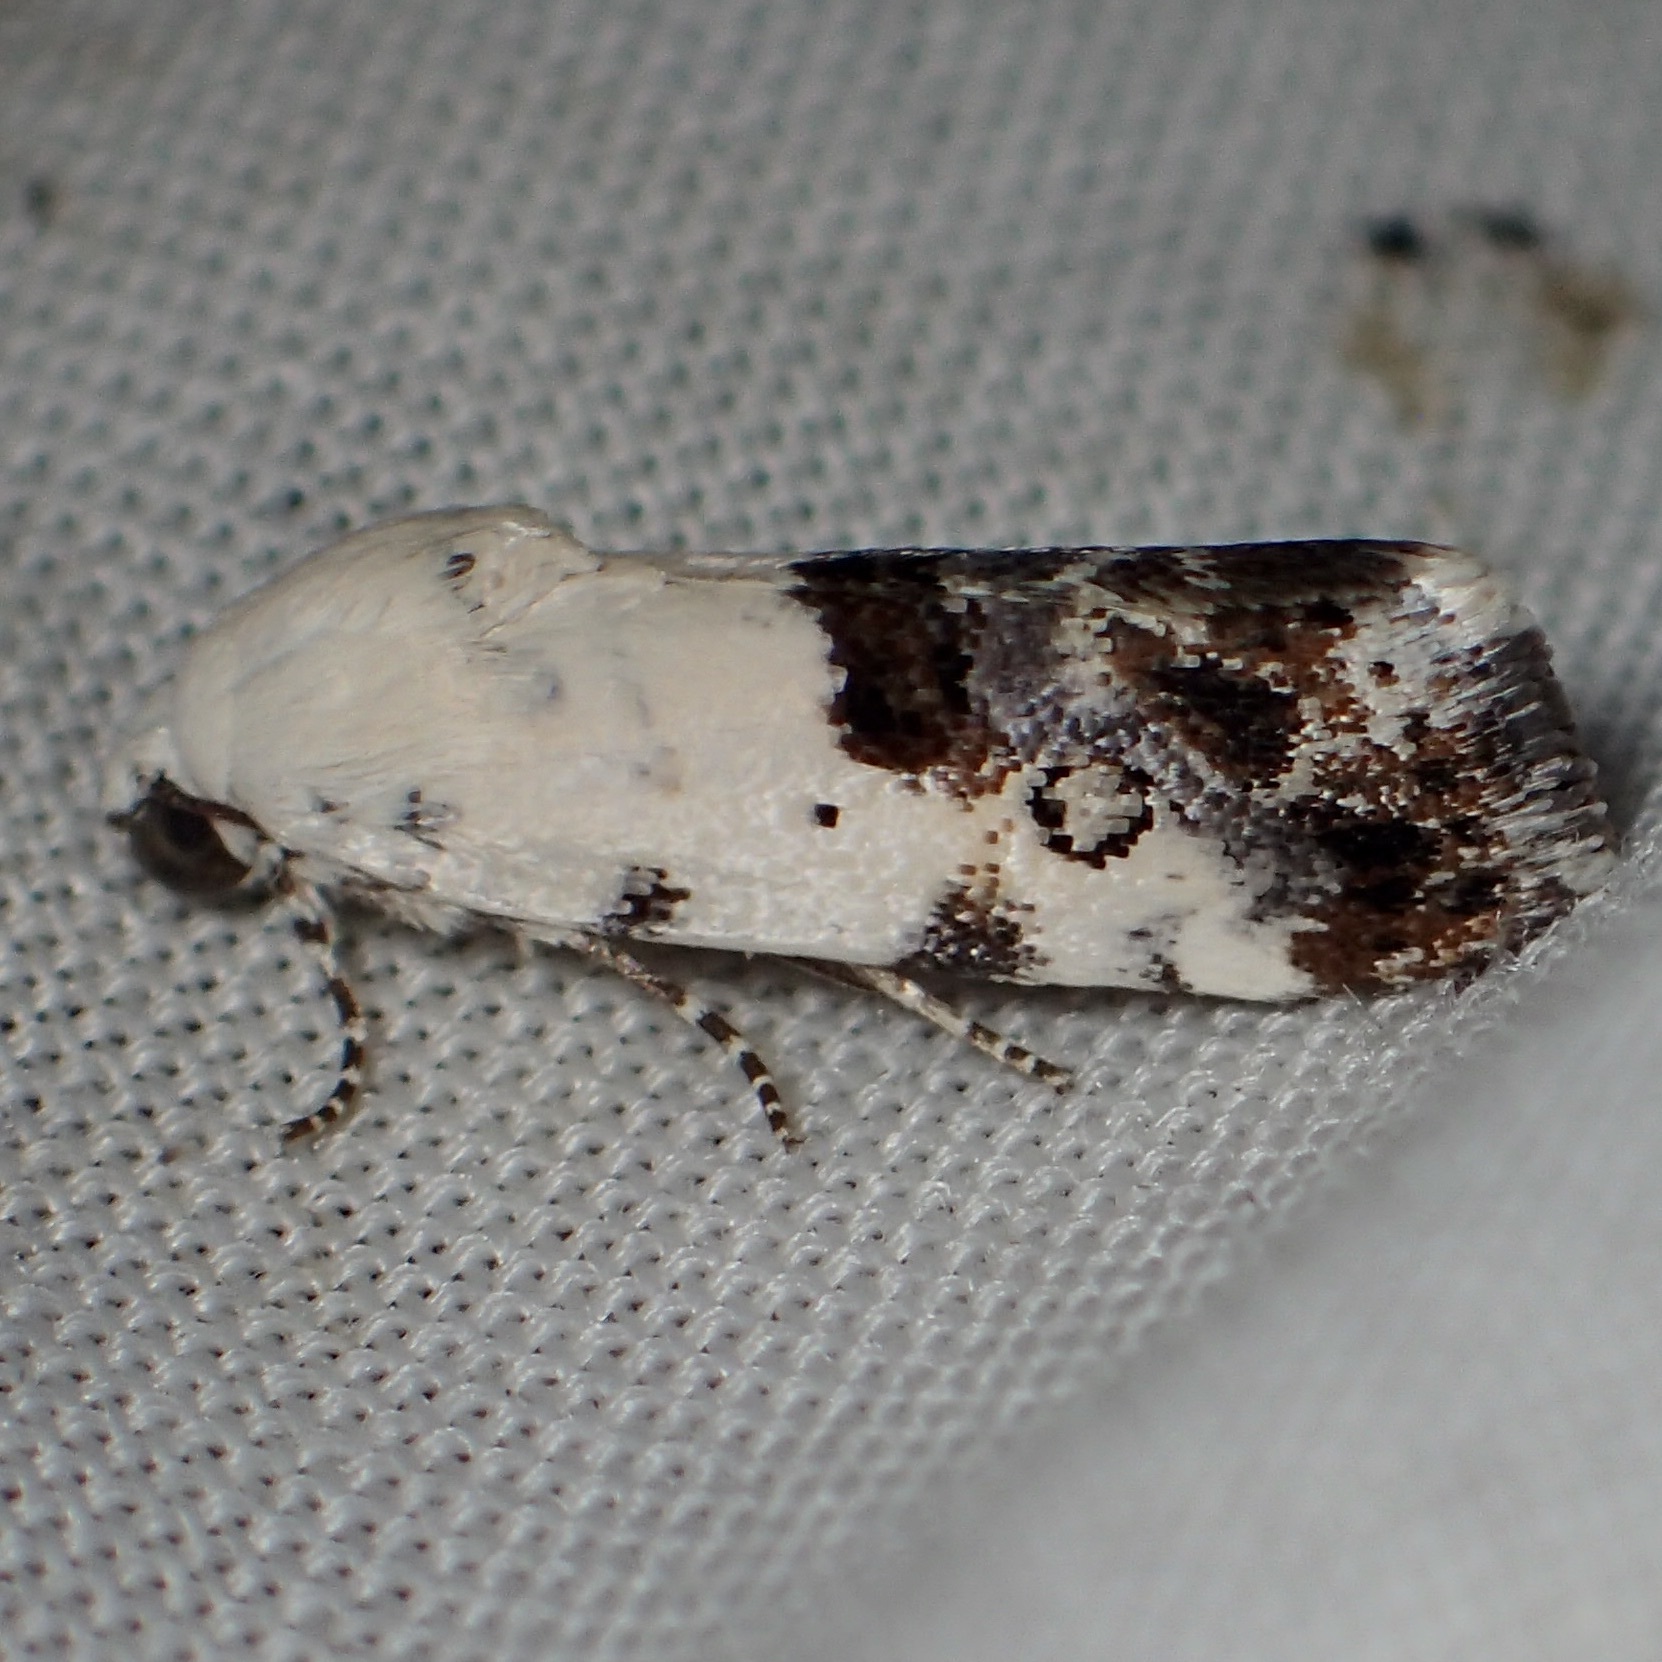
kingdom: Animalia
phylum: Arthropoda
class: Insecta
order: Lepidoptera
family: Noctuidae
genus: Acontia
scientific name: Acontia phecolisca
